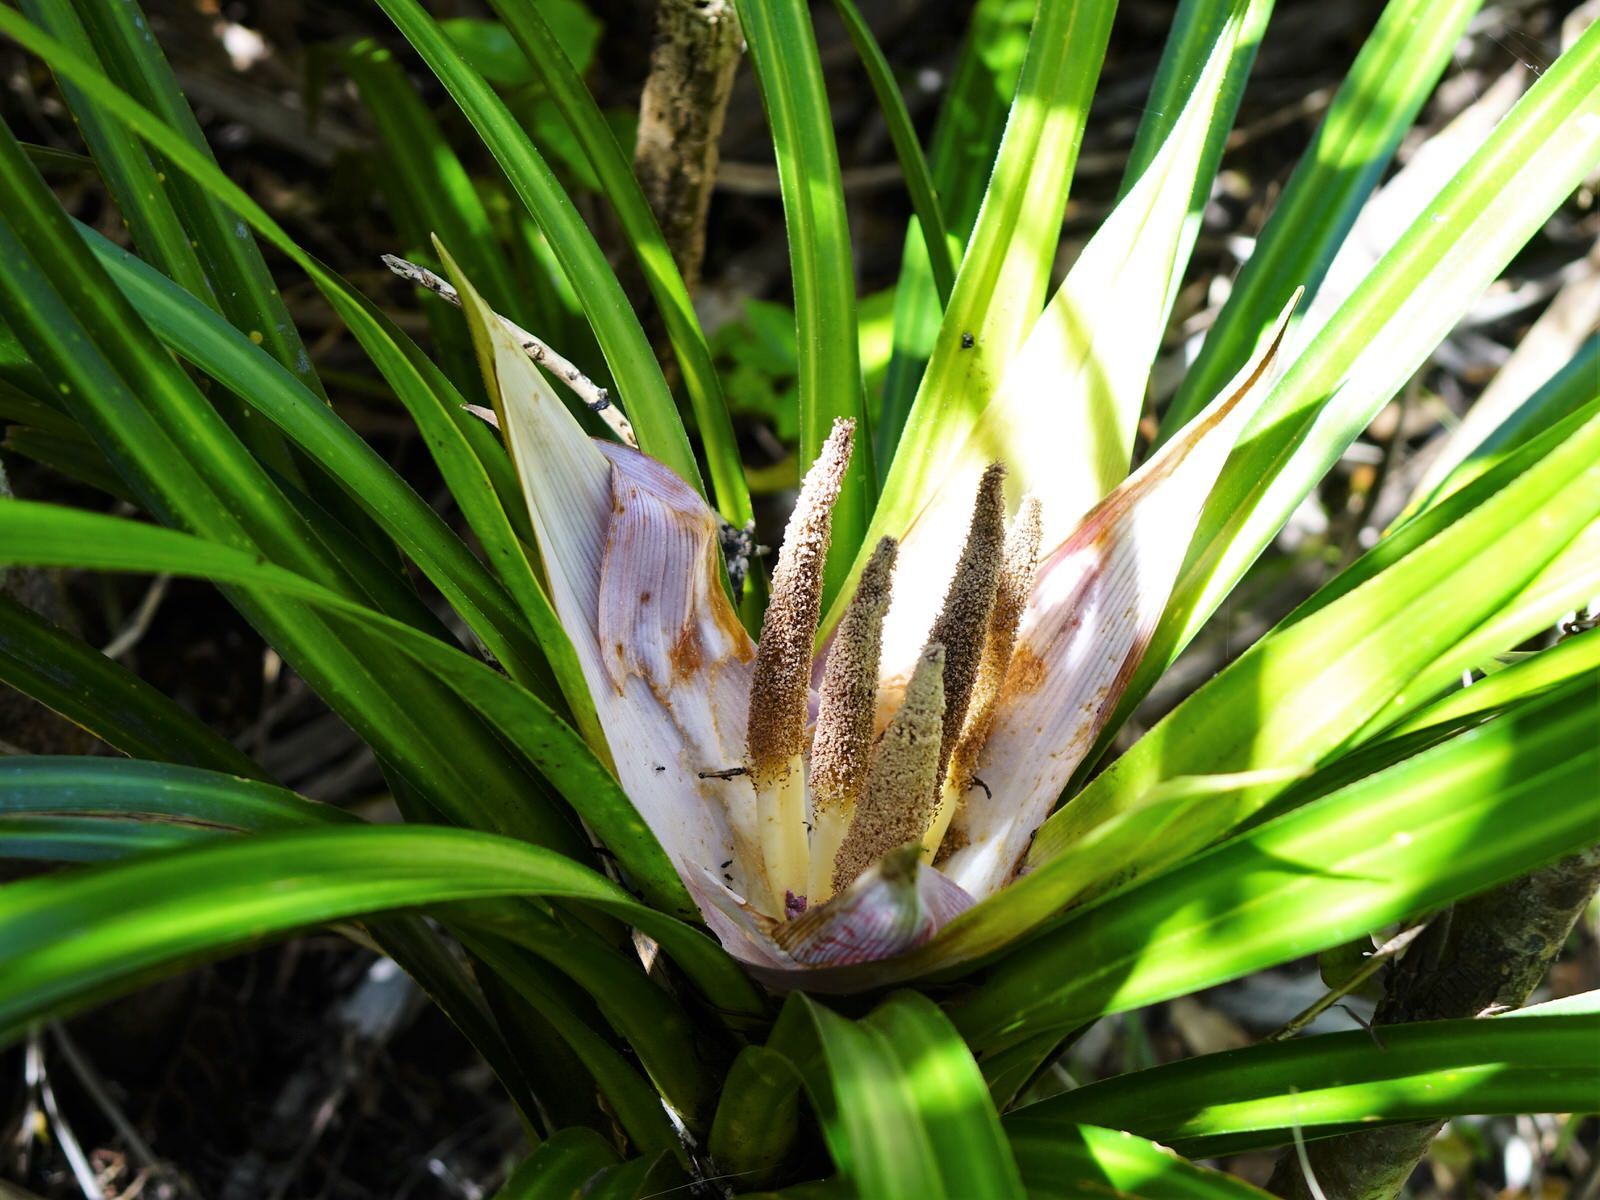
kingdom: Plantae
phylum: Tracheophyta
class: Liliopsida
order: Pandanales
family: Pandanaceae
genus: Freycinetia
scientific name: Freycinetia banksii
